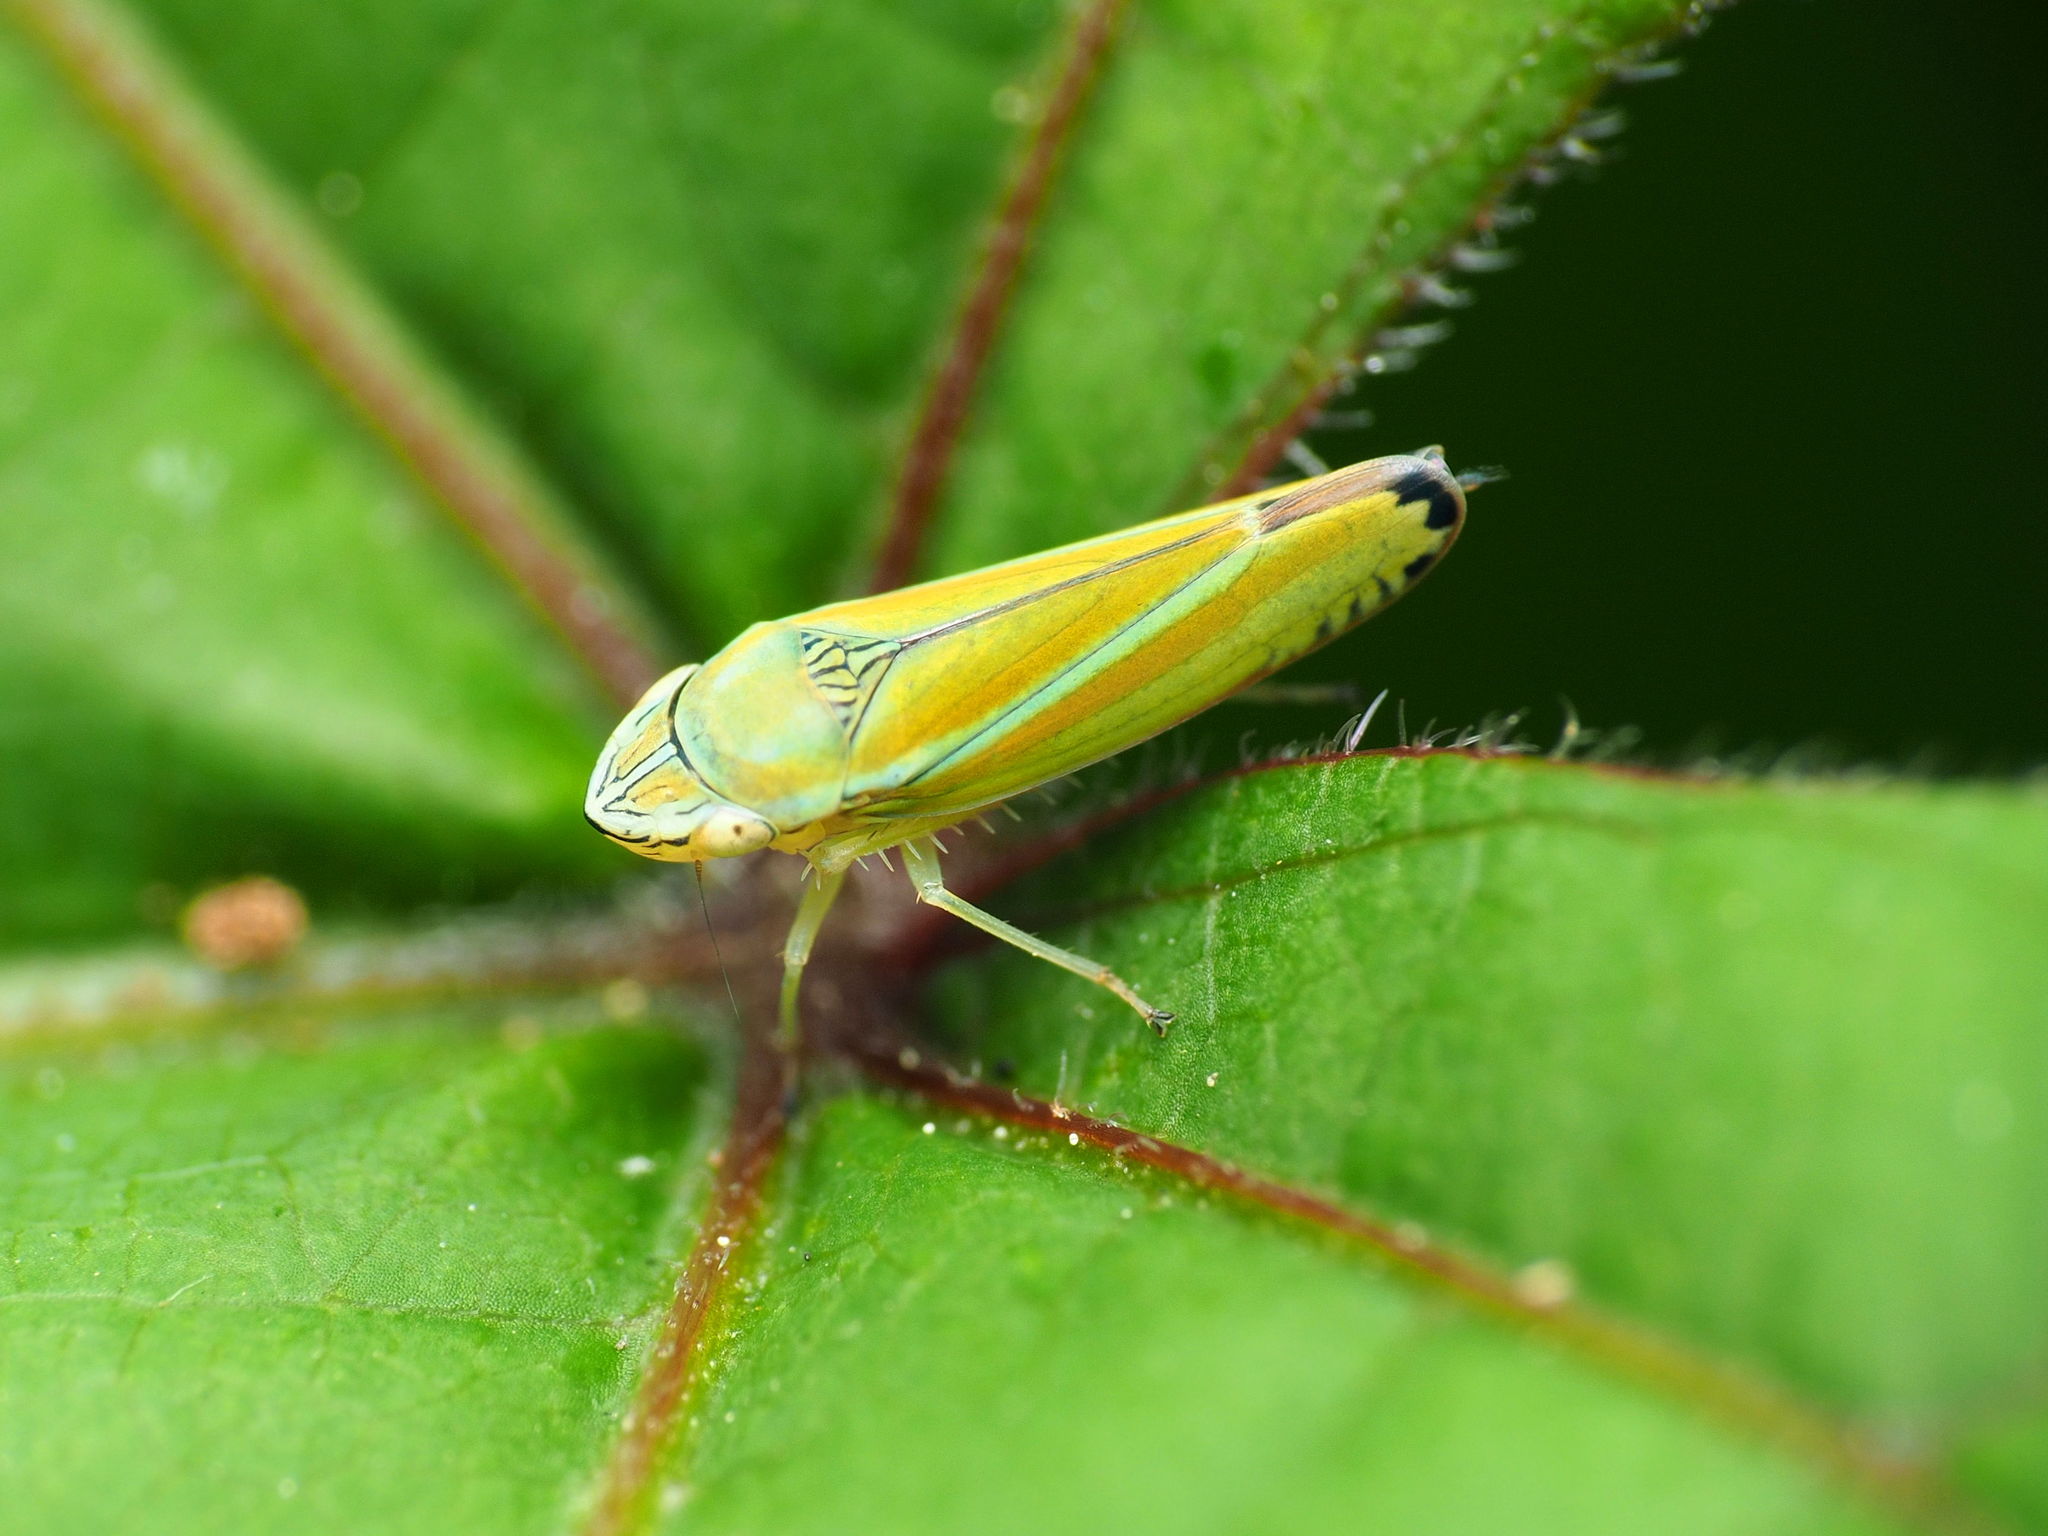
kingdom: Animalia
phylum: Arthropoda
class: Insecta
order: Hemiptera
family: Cicadellidae
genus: Graphocephala
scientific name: Graphocephala versuta
